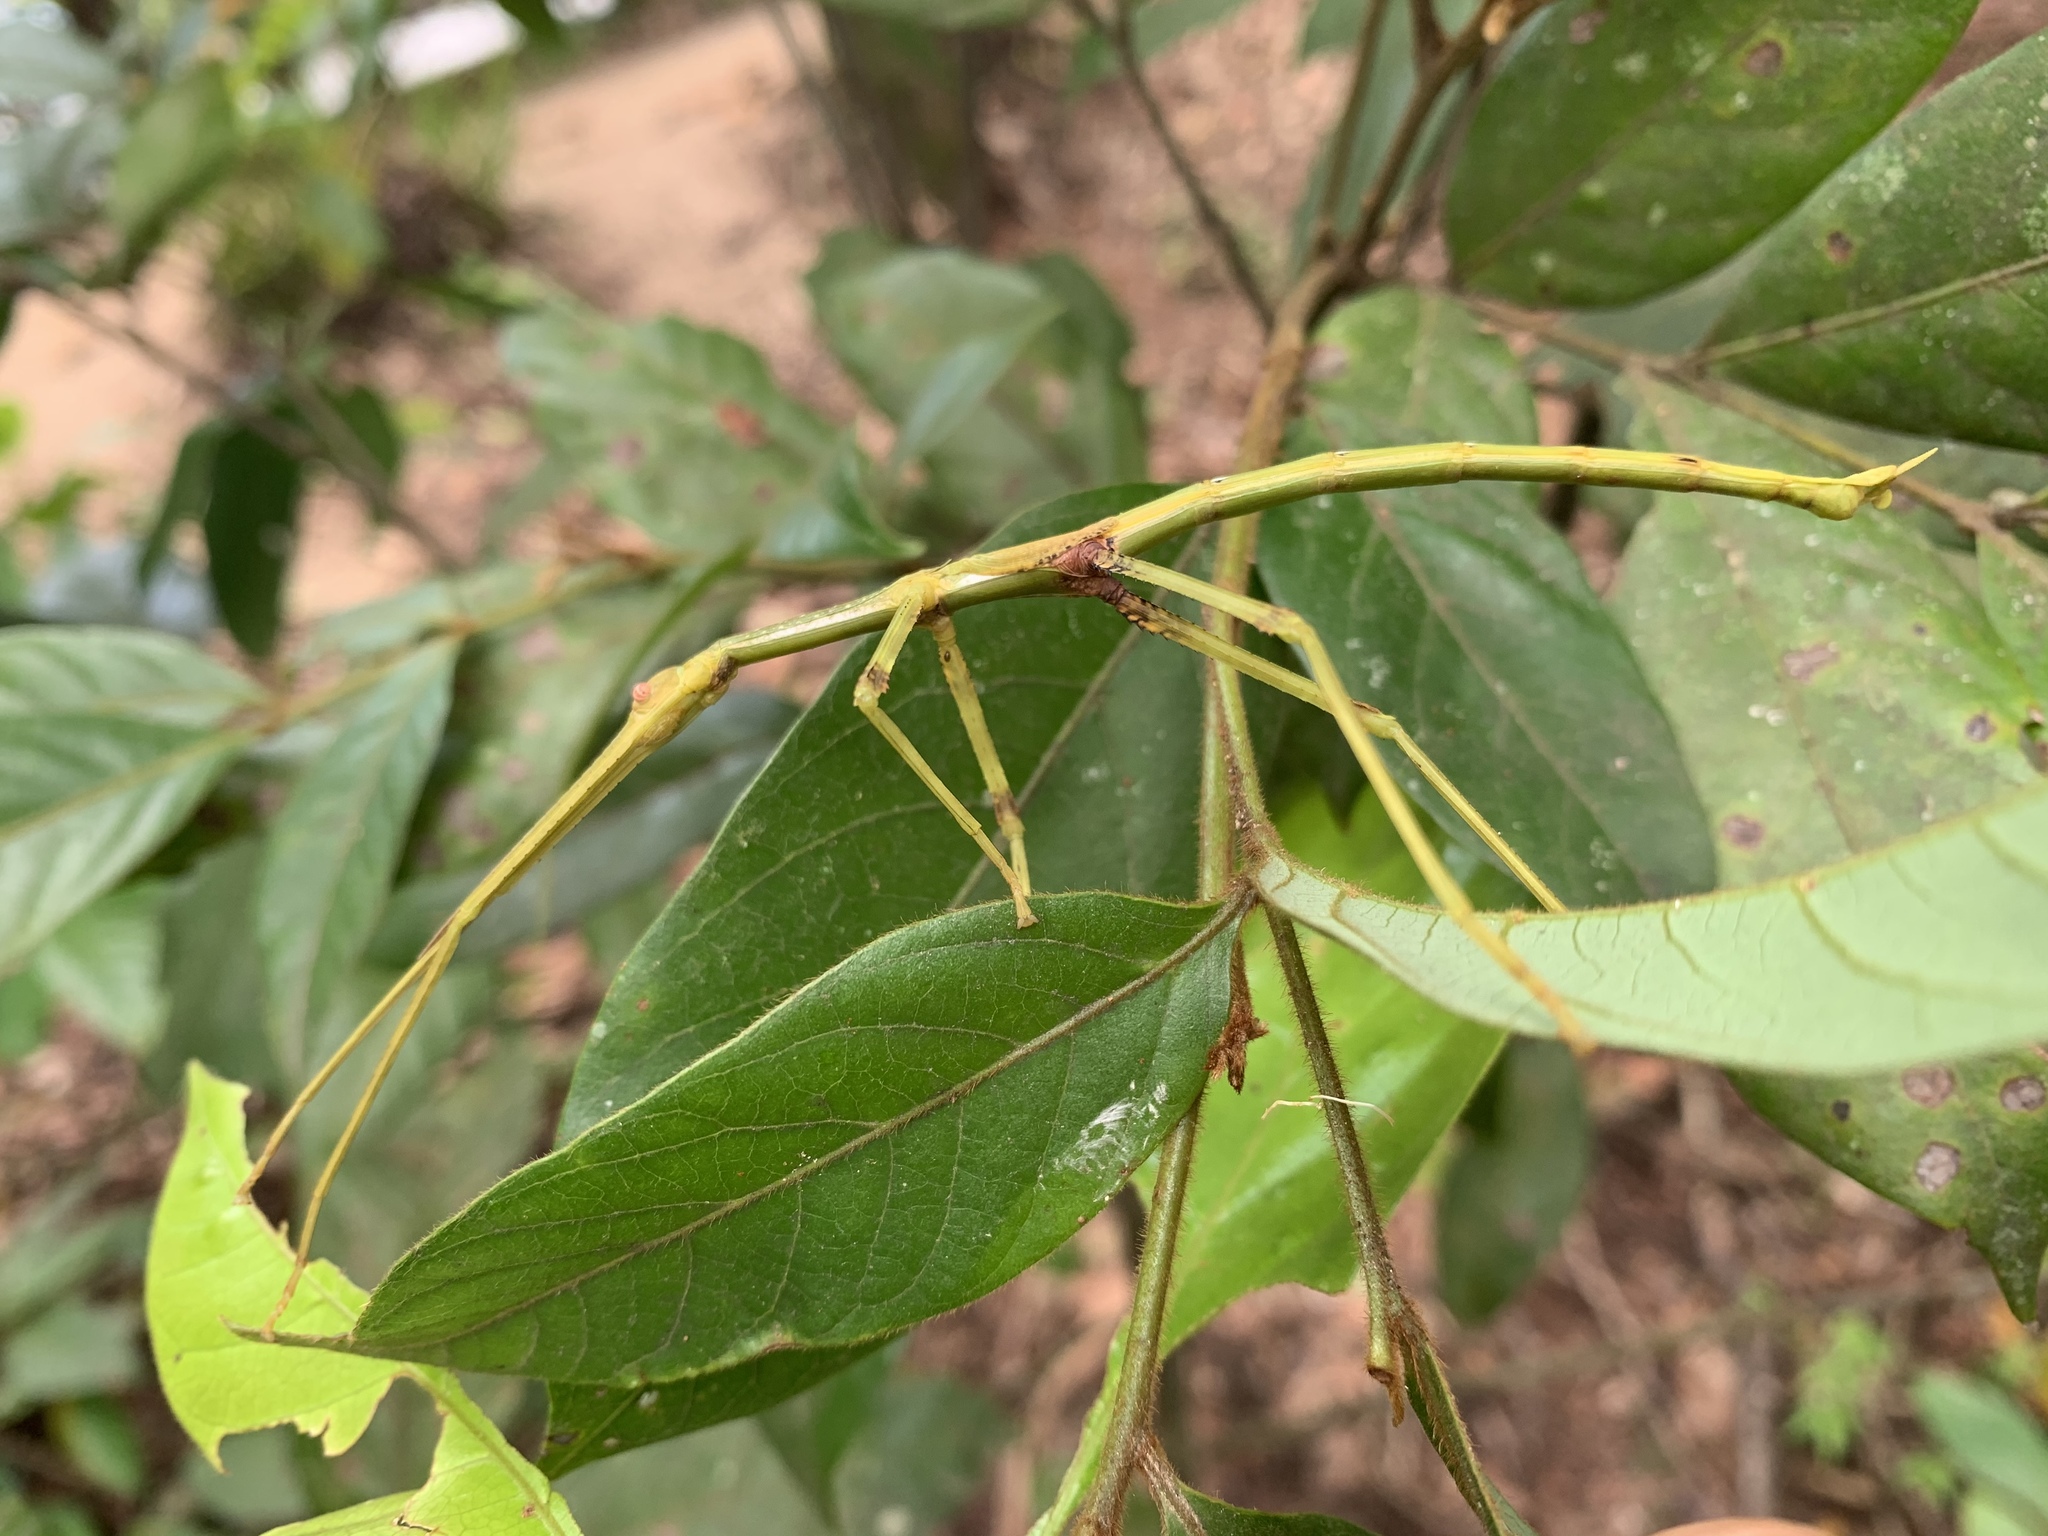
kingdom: Animalia
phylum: Arthropoda
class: Insecta
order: Phasmida
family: Phasmatidae
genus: Anchiale
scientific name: Anchiale briareus
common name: Strong stick insect
